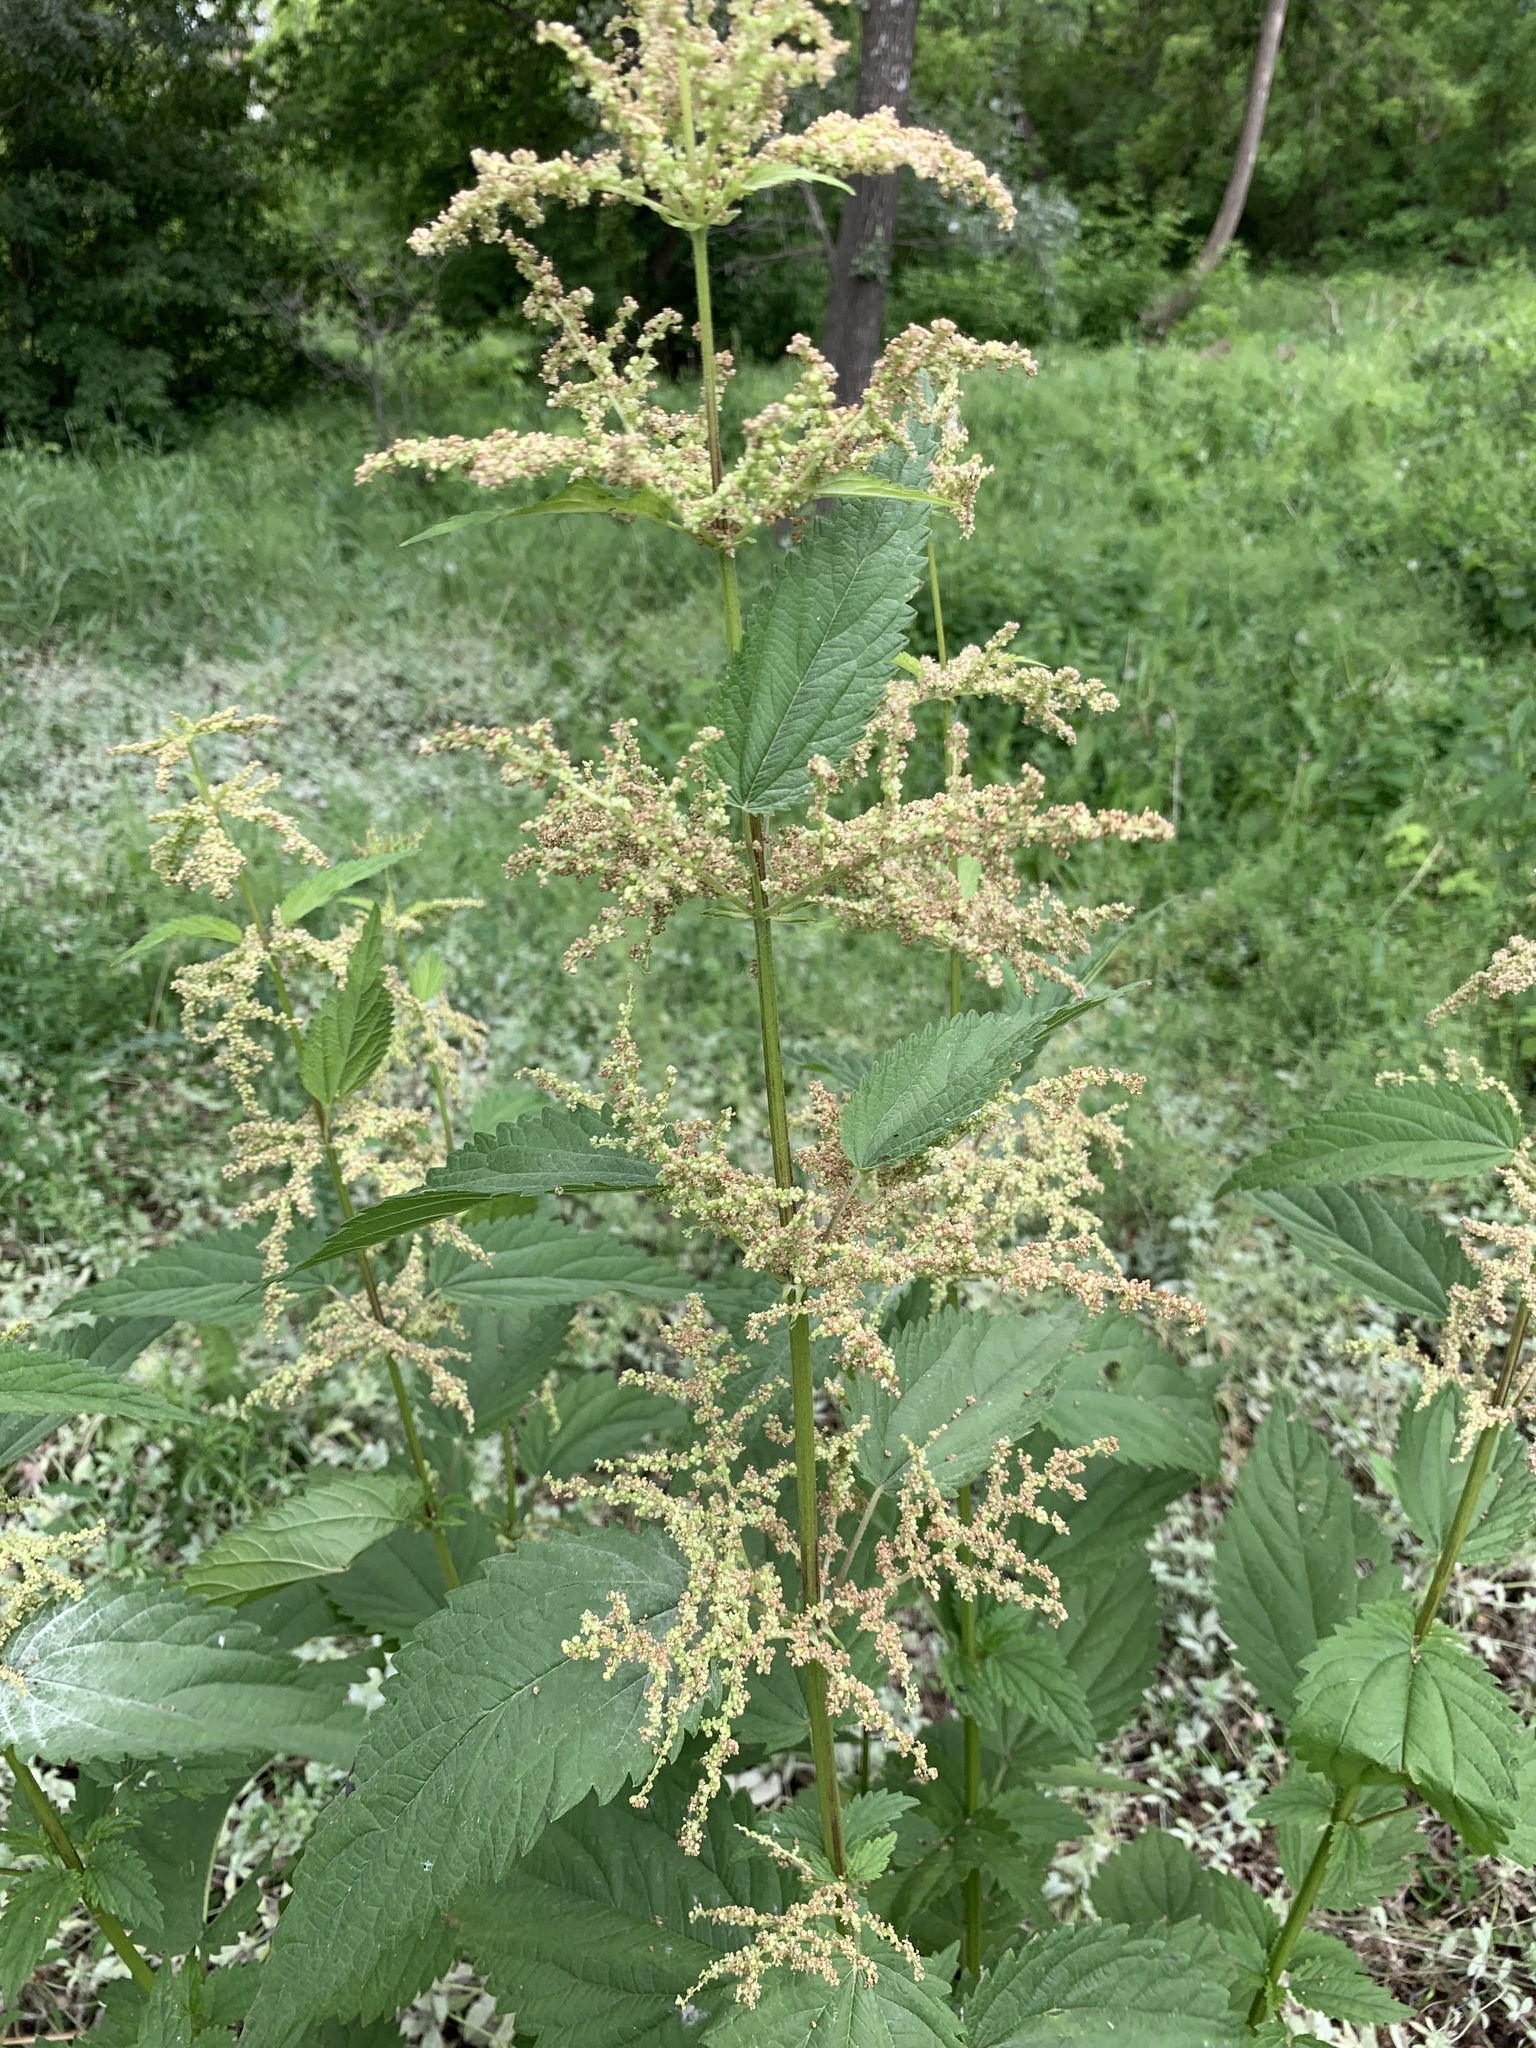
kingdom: Plantae
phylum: Tracheophyta
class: Magnoliopsida
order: Rosales
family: Urticaceae
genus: Urtica
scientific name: Urtica dioica
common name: Common nettle
